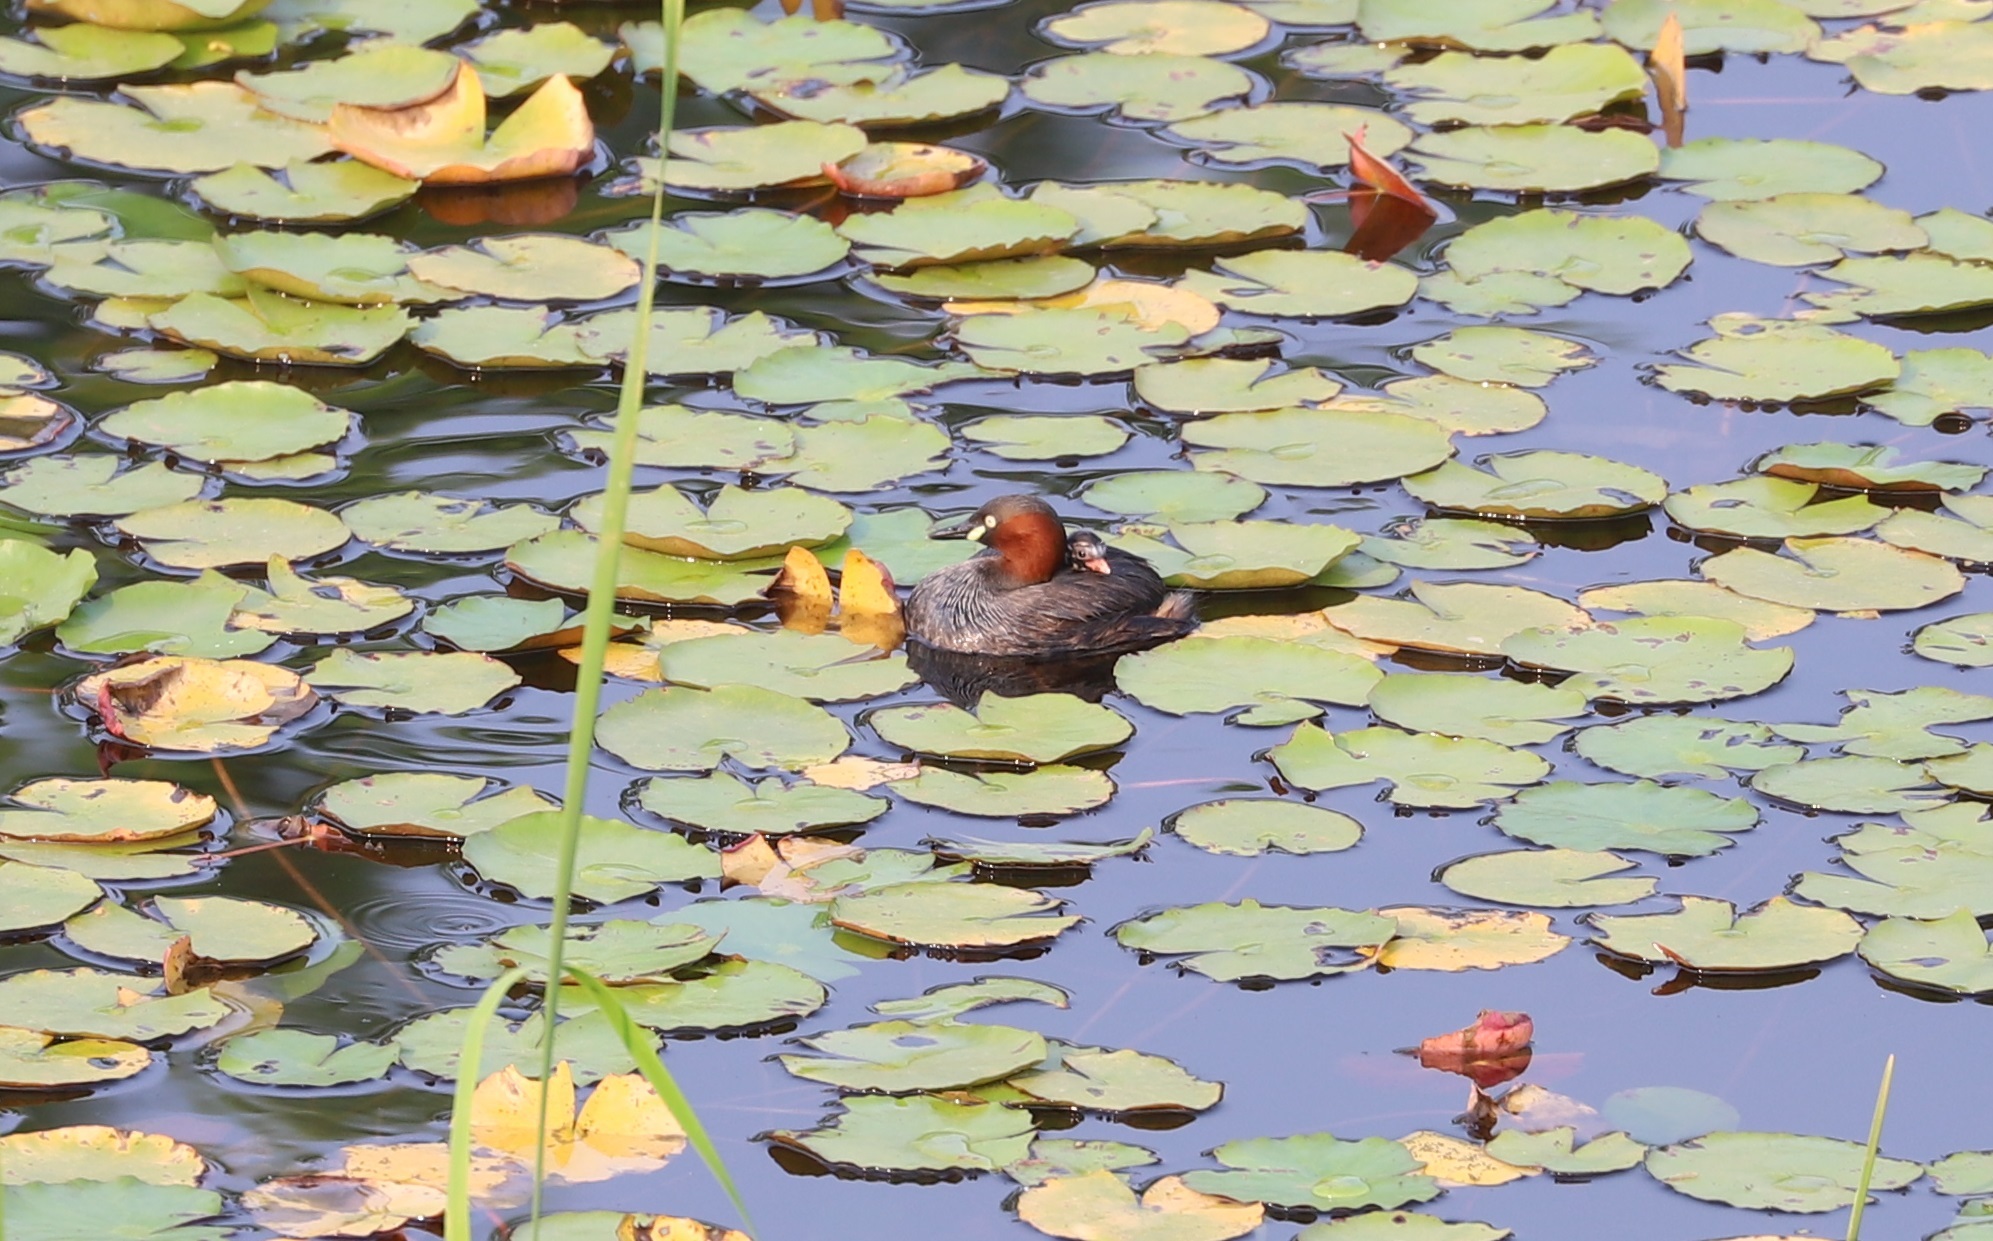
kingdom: Animalia
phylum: Chordata
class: Aves
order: Podicipediformes
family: Podicipedidae
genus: Tachybaptus
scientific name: Tachybaptus ruficollis
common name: Little grebe
